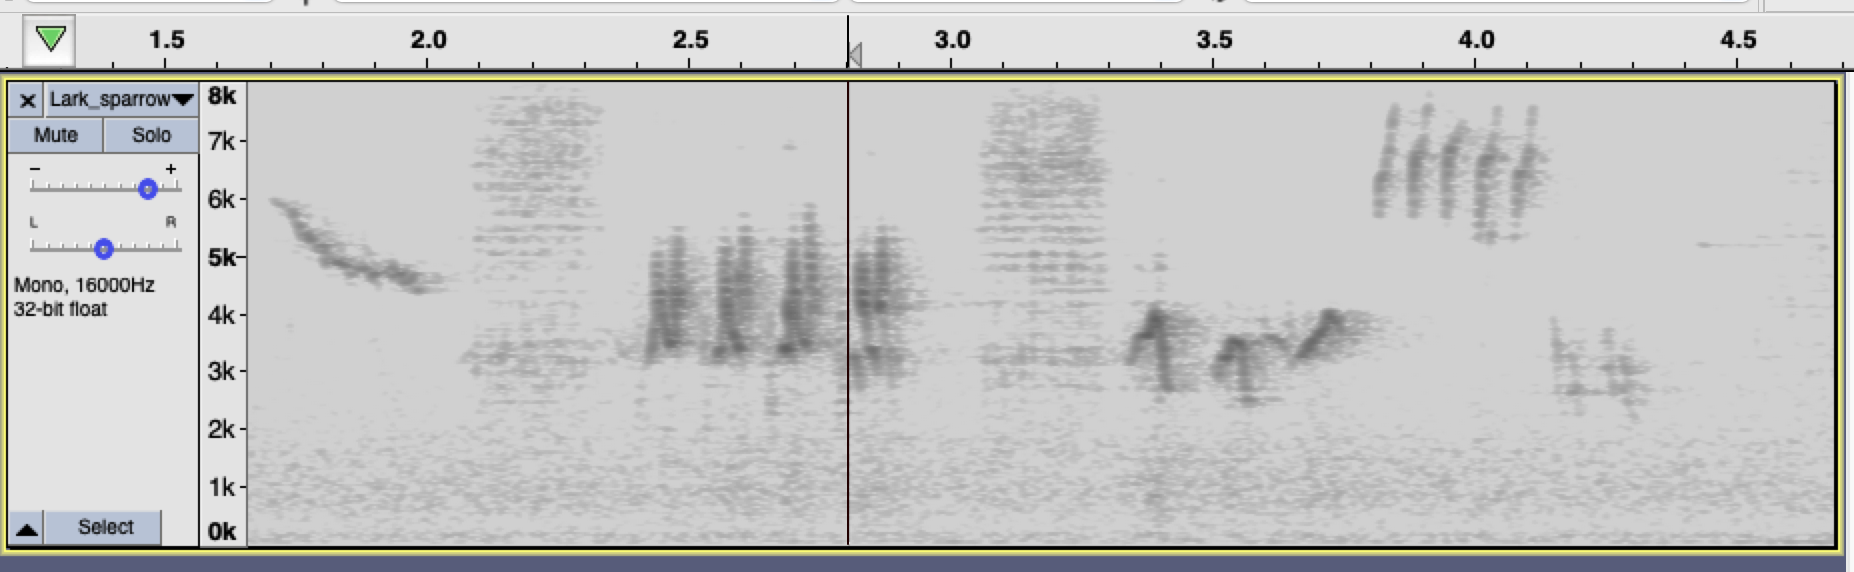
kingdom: Animalia
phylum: Chordata
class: Aves
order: Passeriformes
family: Passerellidae
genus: Chondestes
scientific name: Chondestes grammacus
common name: Lark sparrow
